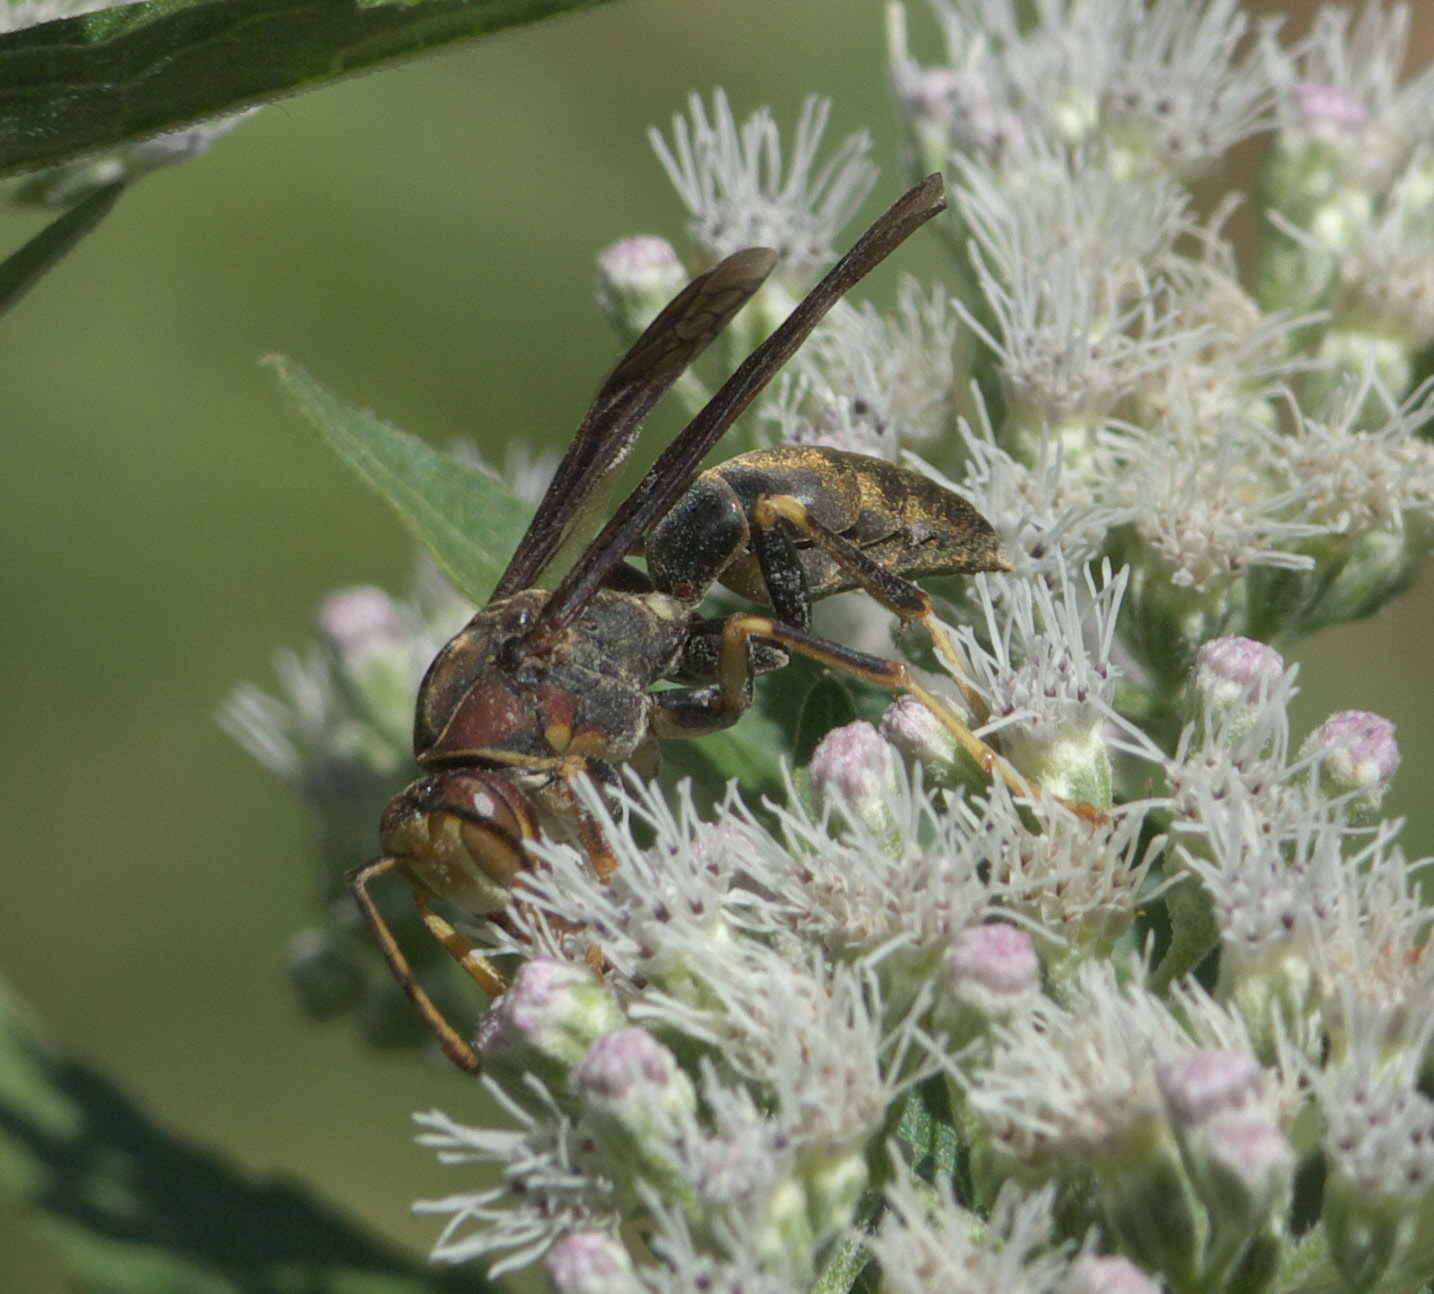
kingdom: Animalia
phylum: Arthropoda
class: Insecta
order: Hymenoptera
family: Eumenidae
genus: Polistes
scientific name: Polistes metricus
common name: Metric paper wasp
